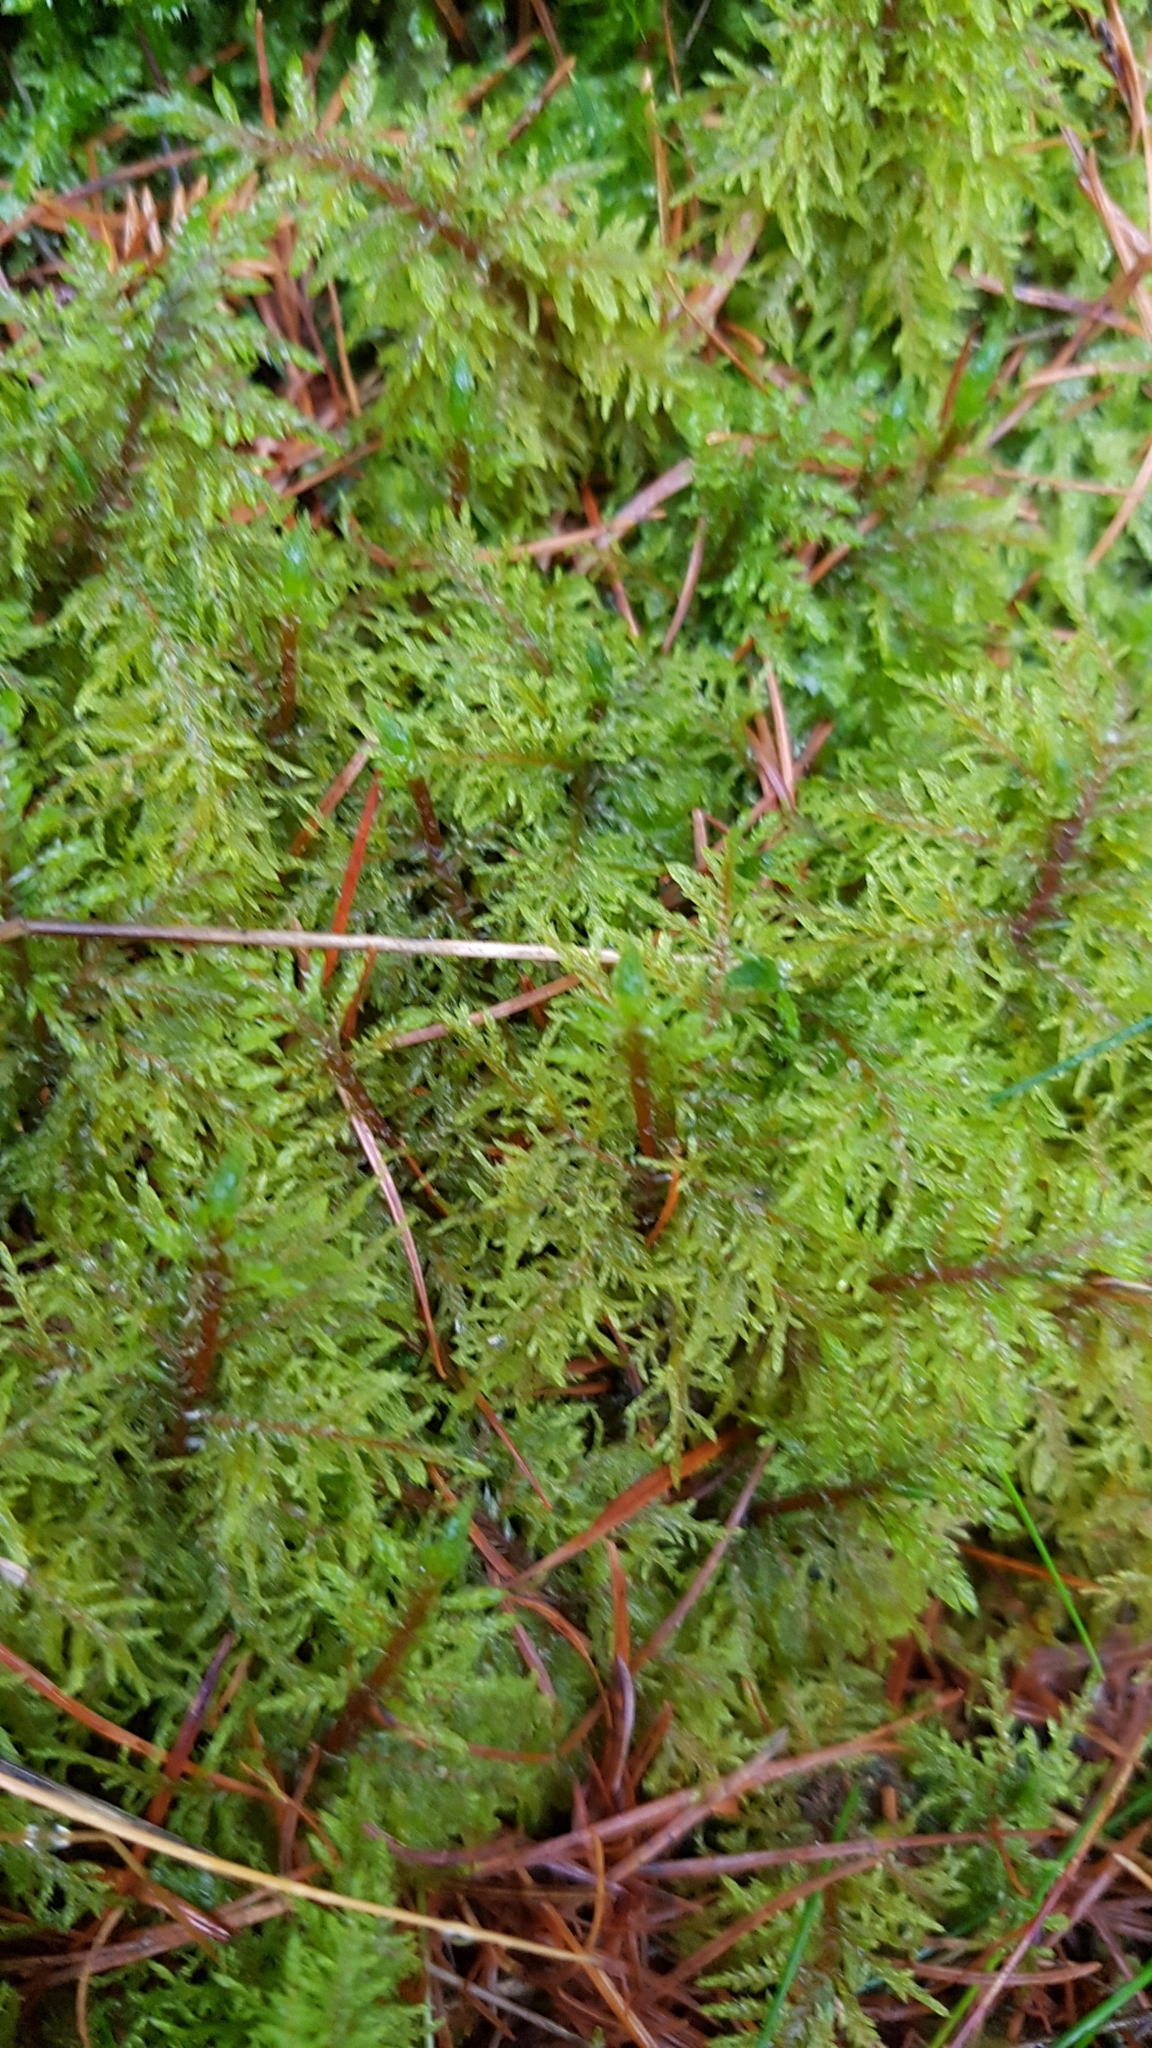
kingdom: Plantae
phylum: Bryophyta
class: Bryopsida
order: Hypnales
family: Hylocomiaceae
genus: Hylocomium
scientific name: Hylocomium splendens
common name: Stairstep moss
